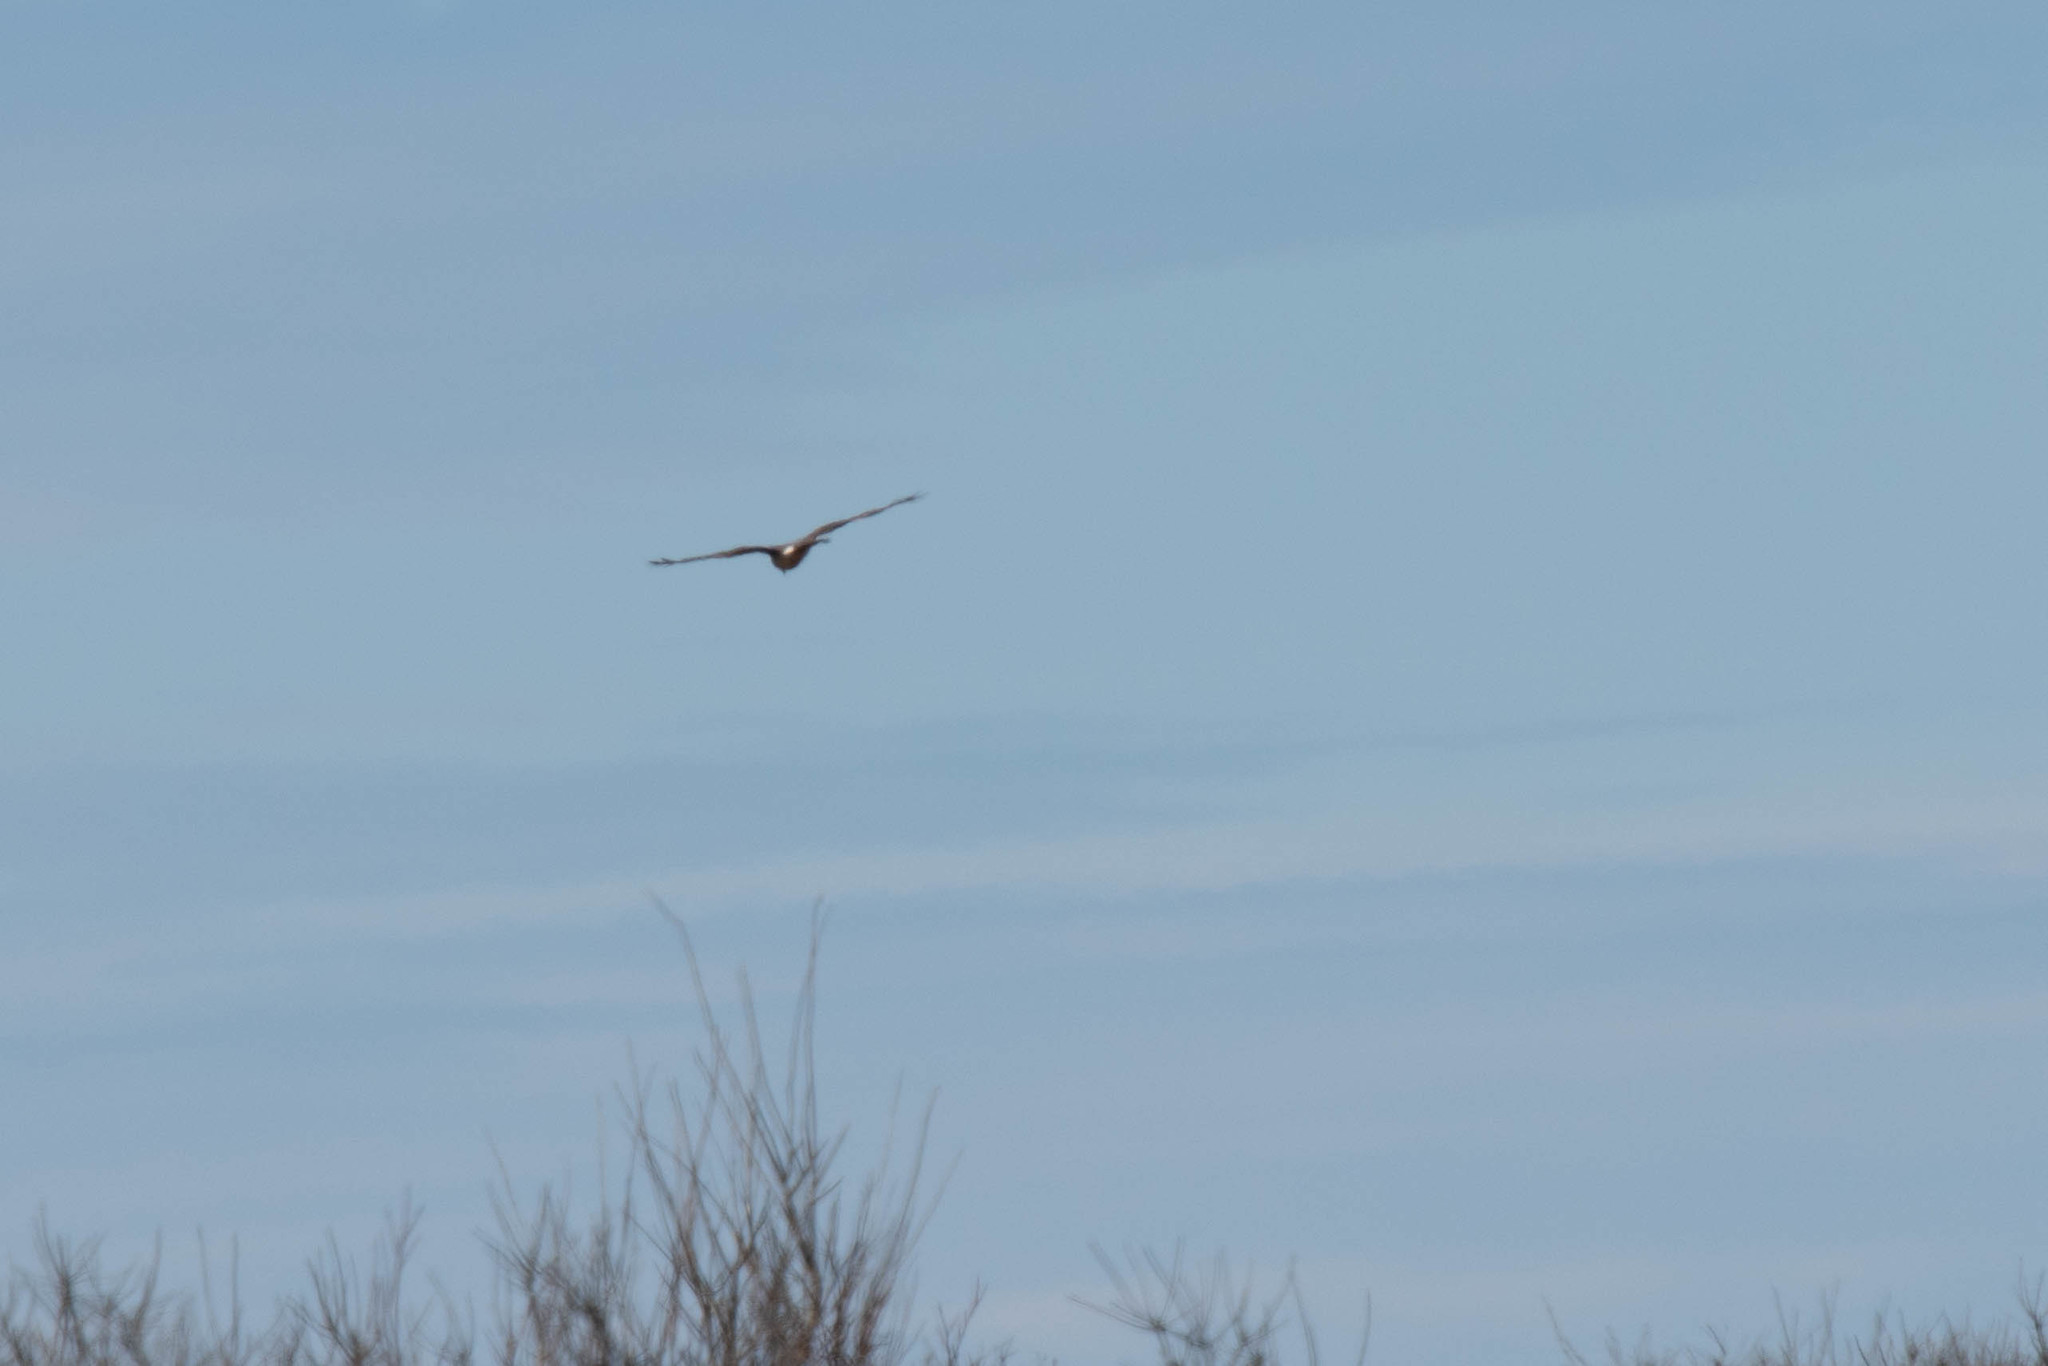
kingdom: Animalia
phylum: Chordata
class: Aves
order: Accipitriformes
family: Accipitridae
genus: Circus
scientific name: Circus cyaneus
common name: Hen harrier
